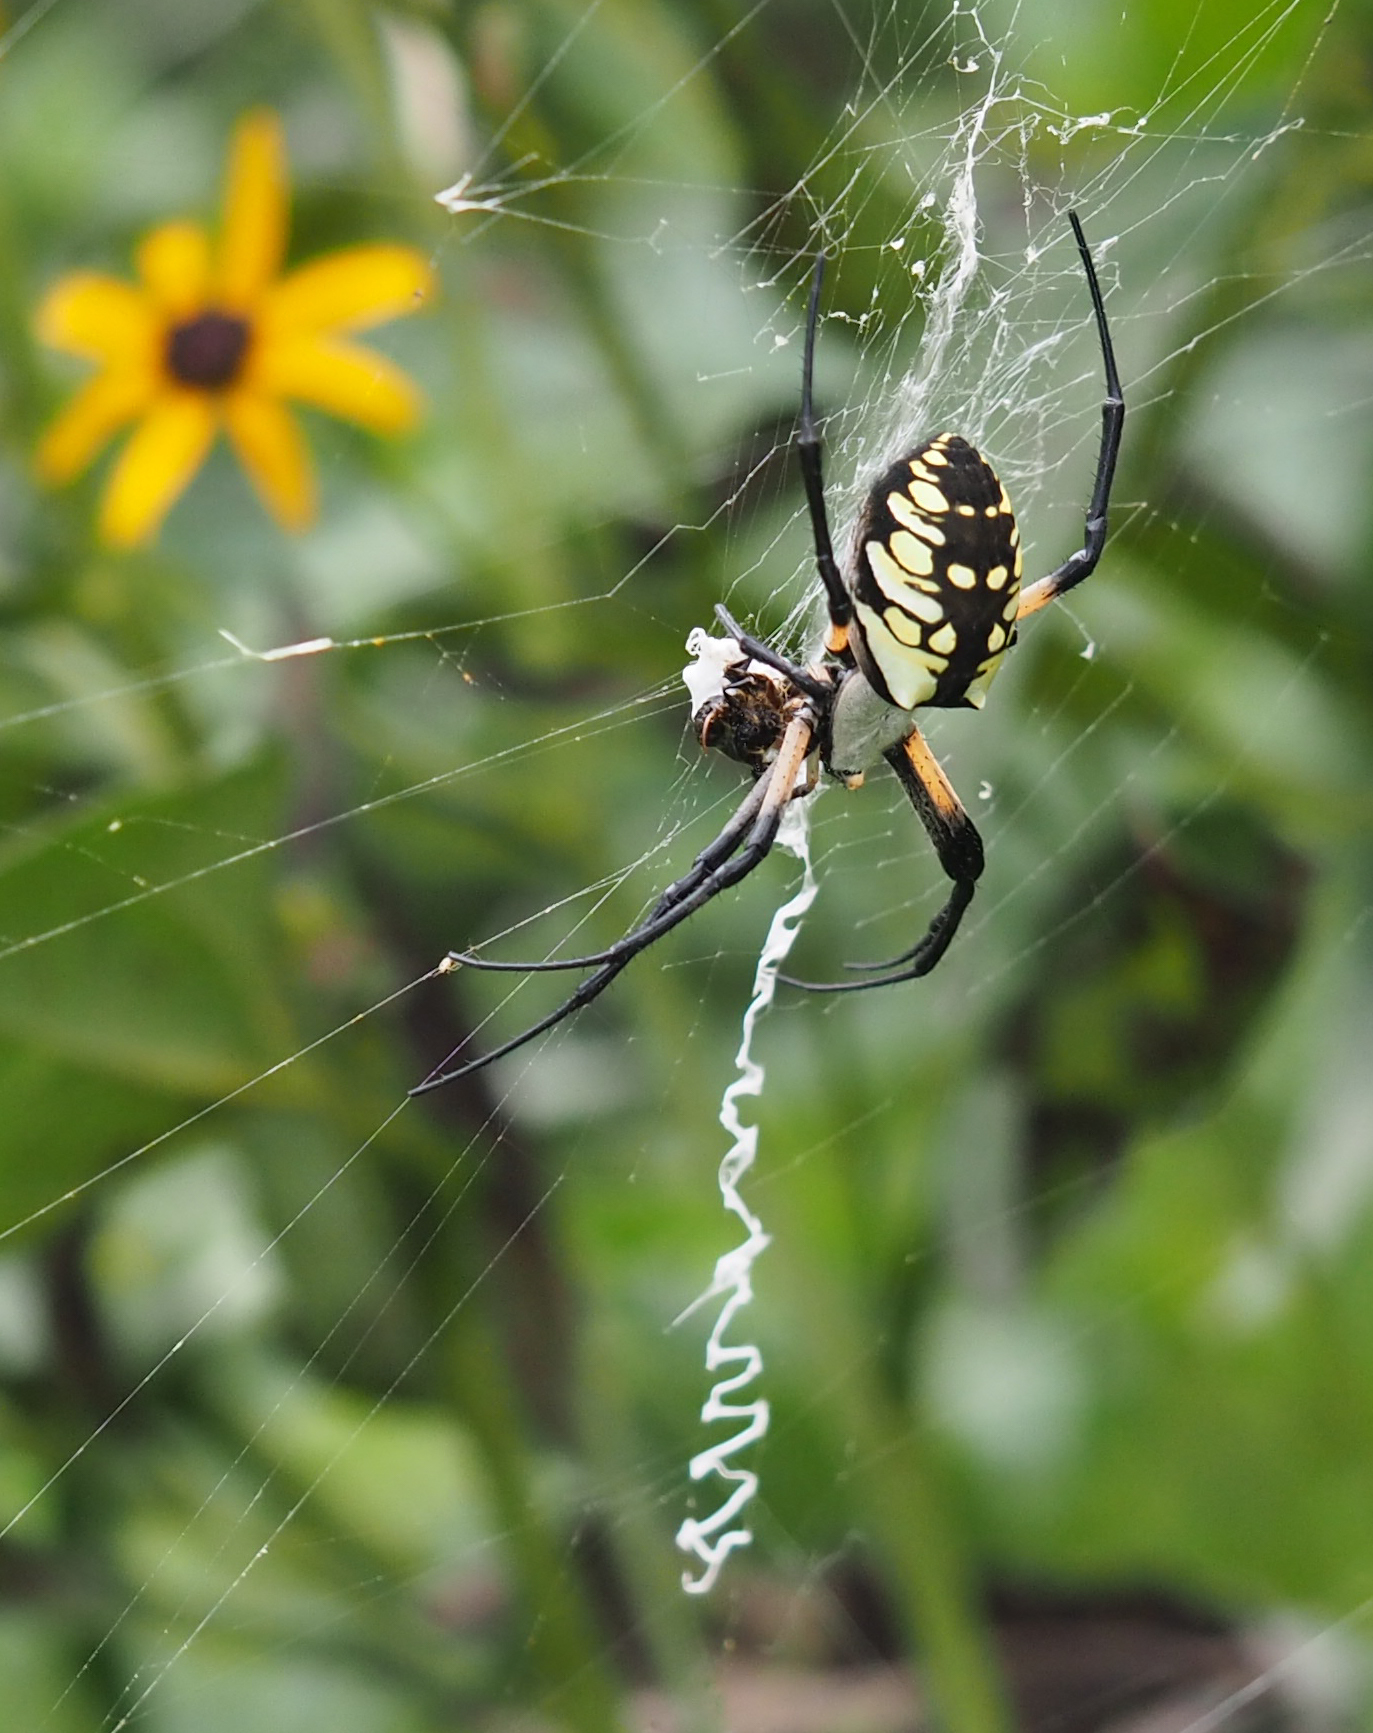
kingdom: Animalia
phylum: Arthropoda
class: Arachnida
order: Araneae
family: Araneidae
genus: Argiope
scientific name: Argiope aurantia
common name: Orb weavers
